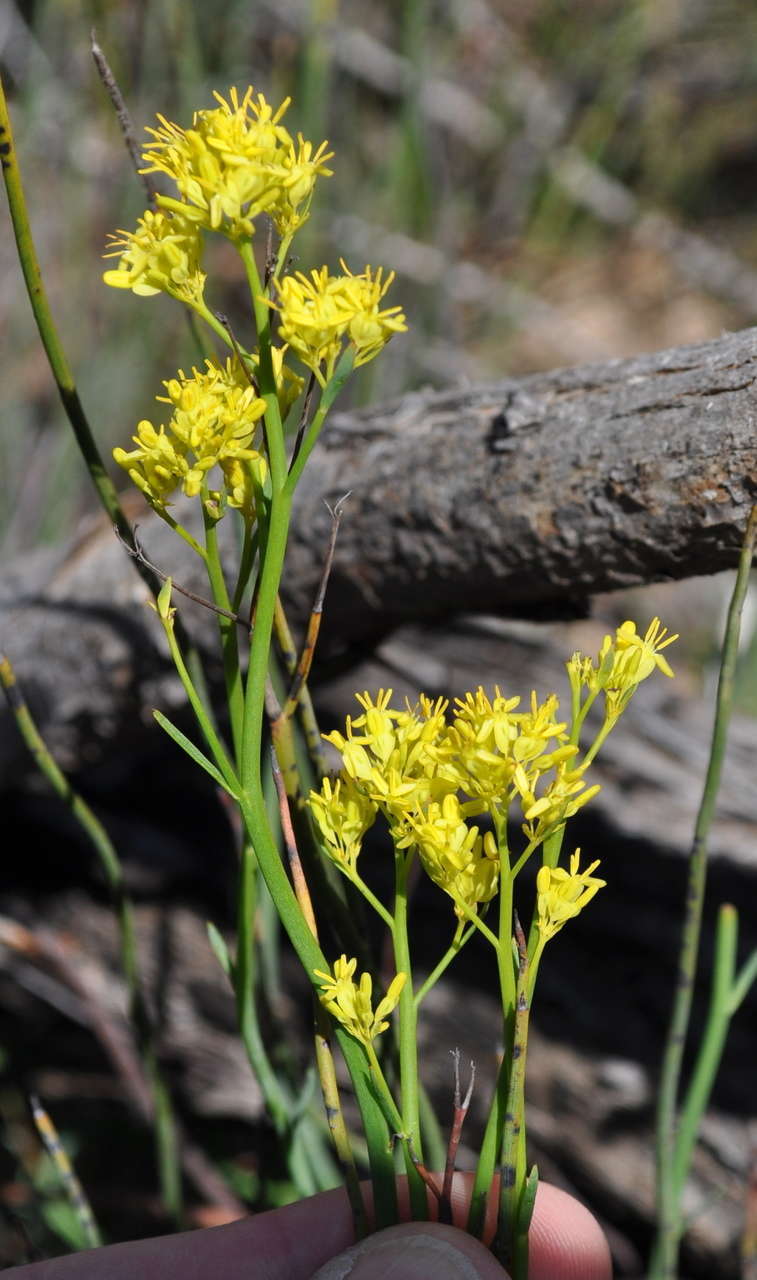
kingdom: Plantae
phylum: Tracheophyta
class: Magnoliopsida
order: Saxifragales
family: Haloragaceae
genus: Glischrocaryon
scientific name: Glischrocaryon behrii
